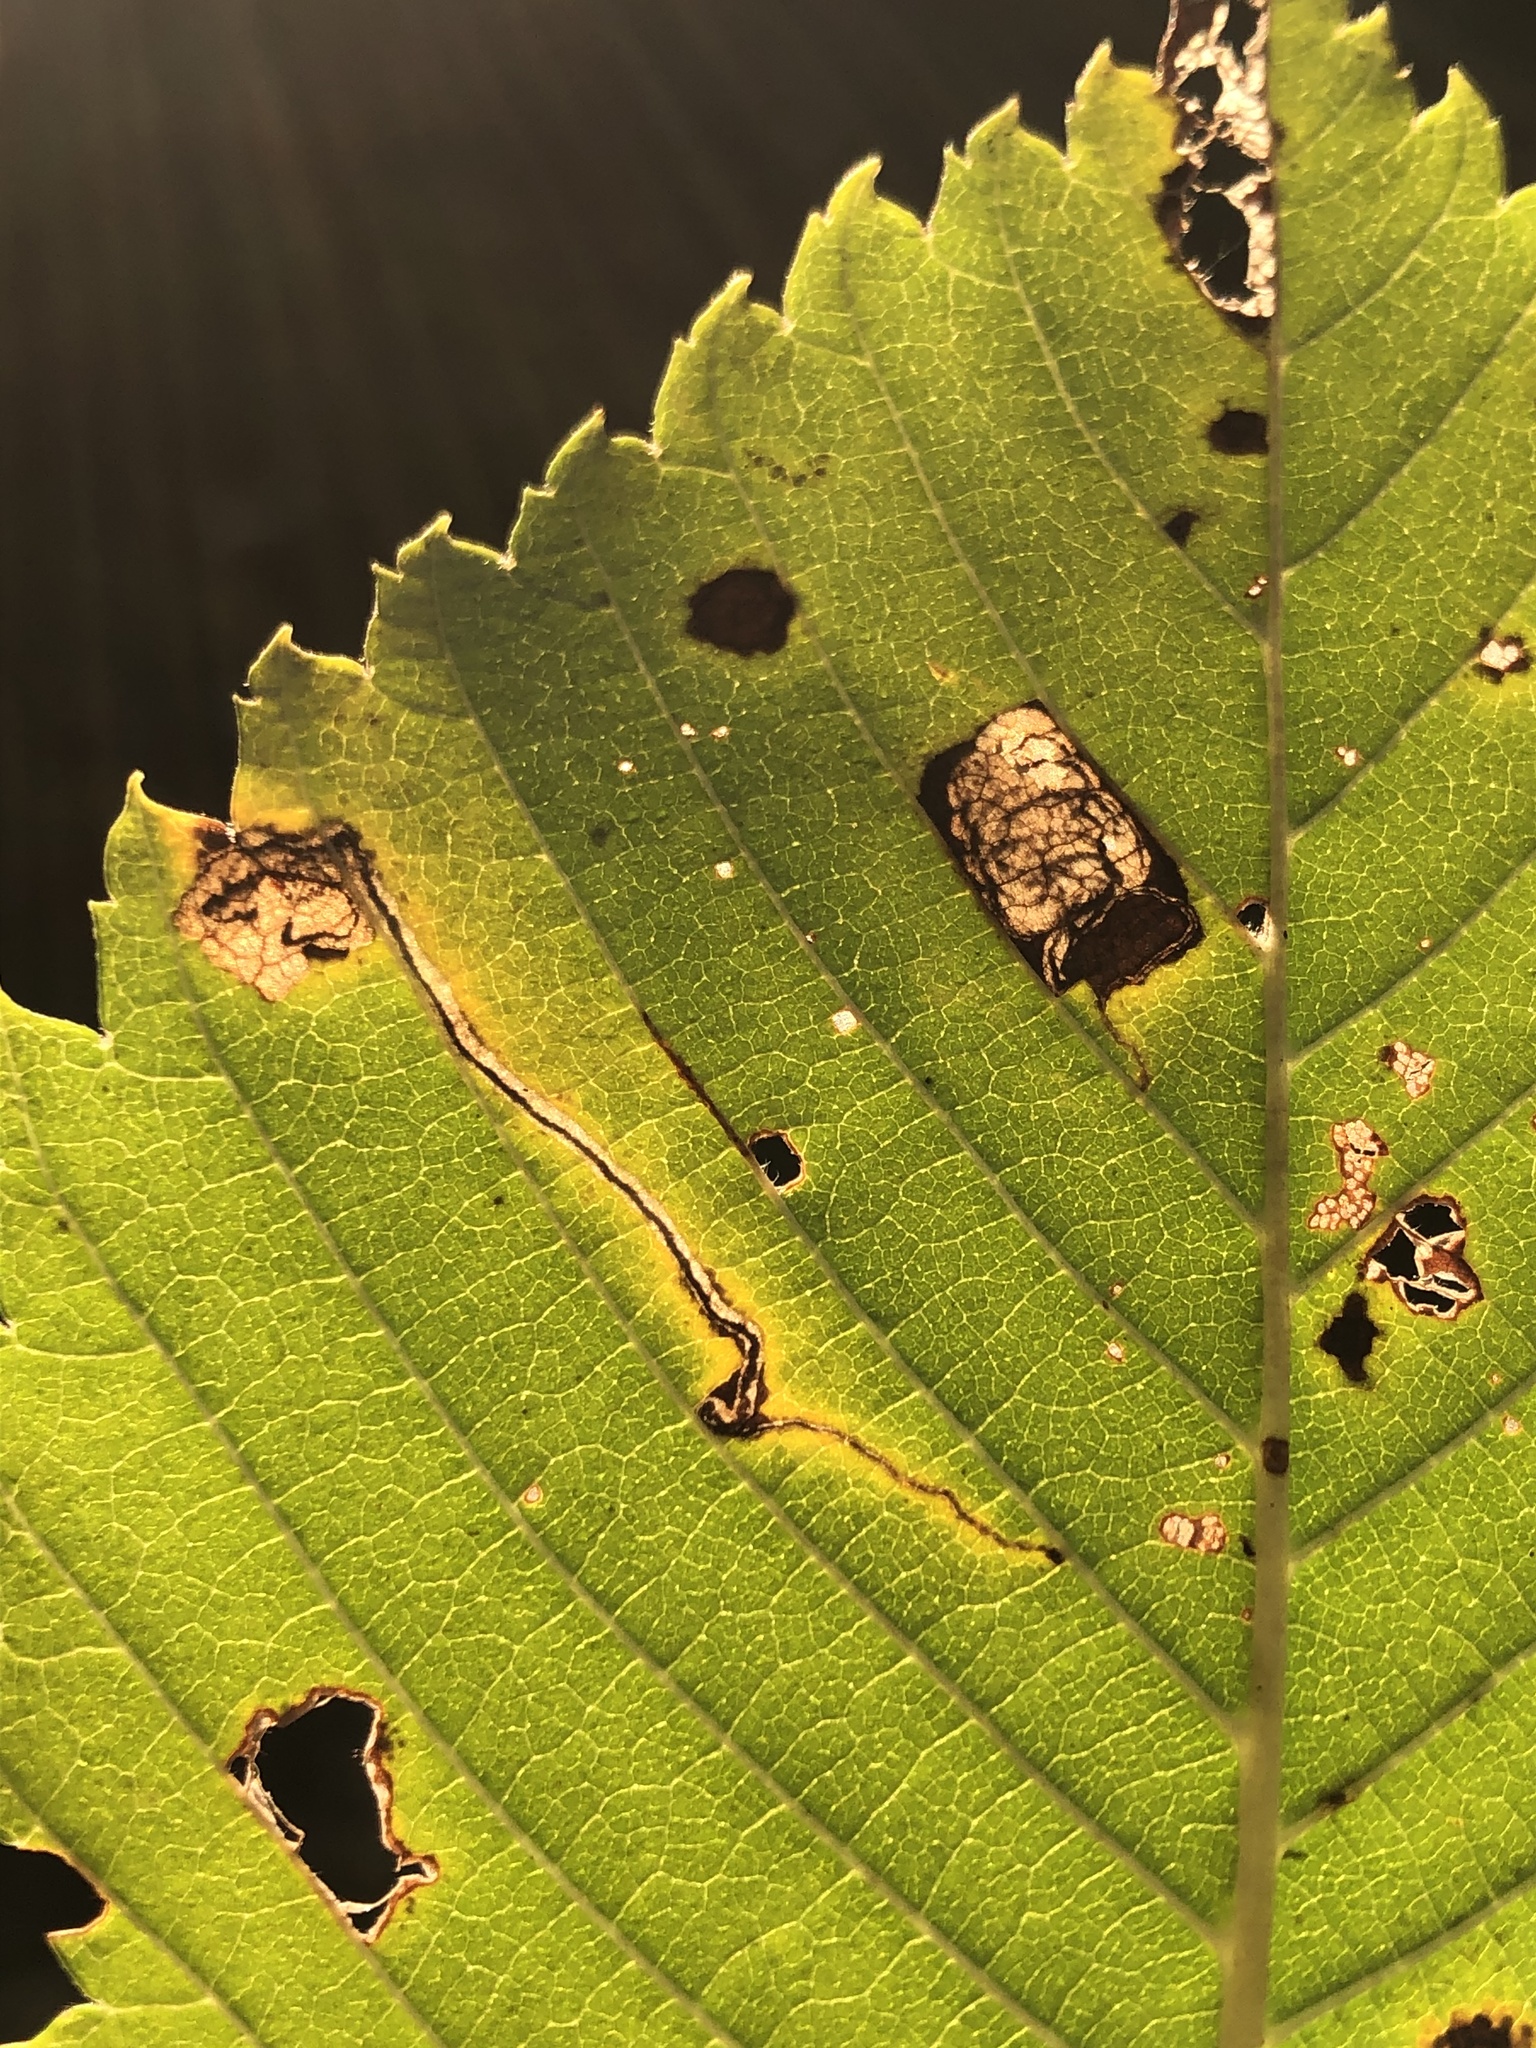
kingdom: Animalia
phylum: Arthropoda
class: Insecta
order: Lepidoptera
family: Nepticulidae
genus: Ectoedemia
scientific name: Ectoedemia ulmella
